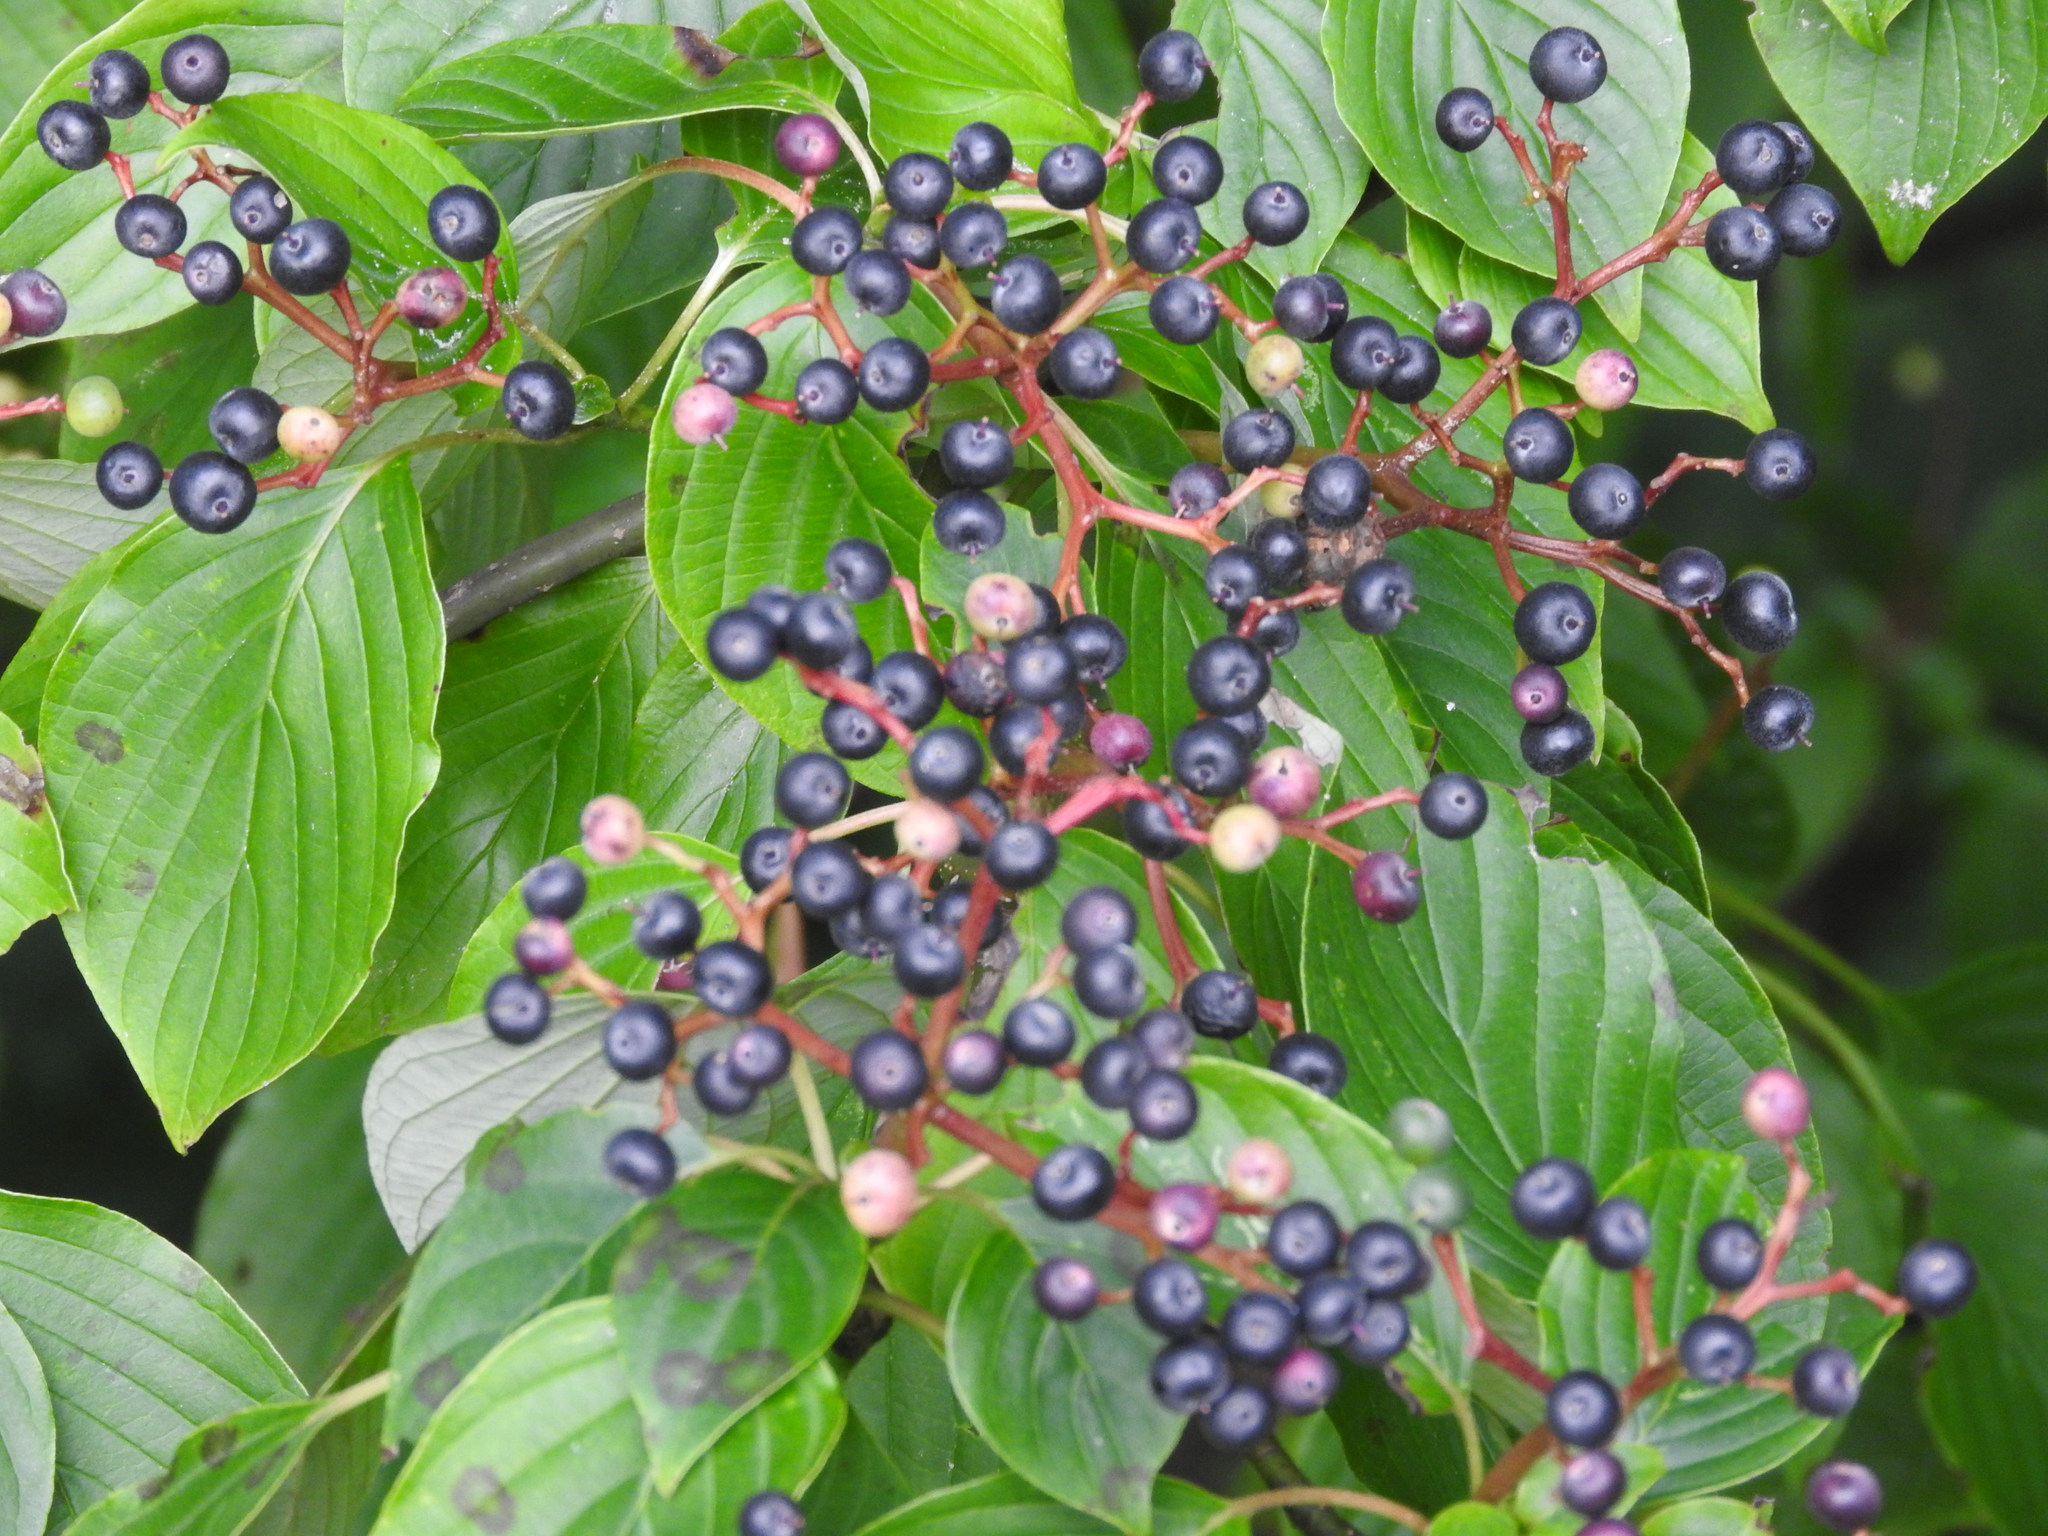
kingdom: Plantae
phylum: Tracheophyta
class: Magnoliopsida
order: Cornales
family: Cornaceae
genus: Cornus
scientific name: Cornus alternifolia
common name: Pagoda dogwood
